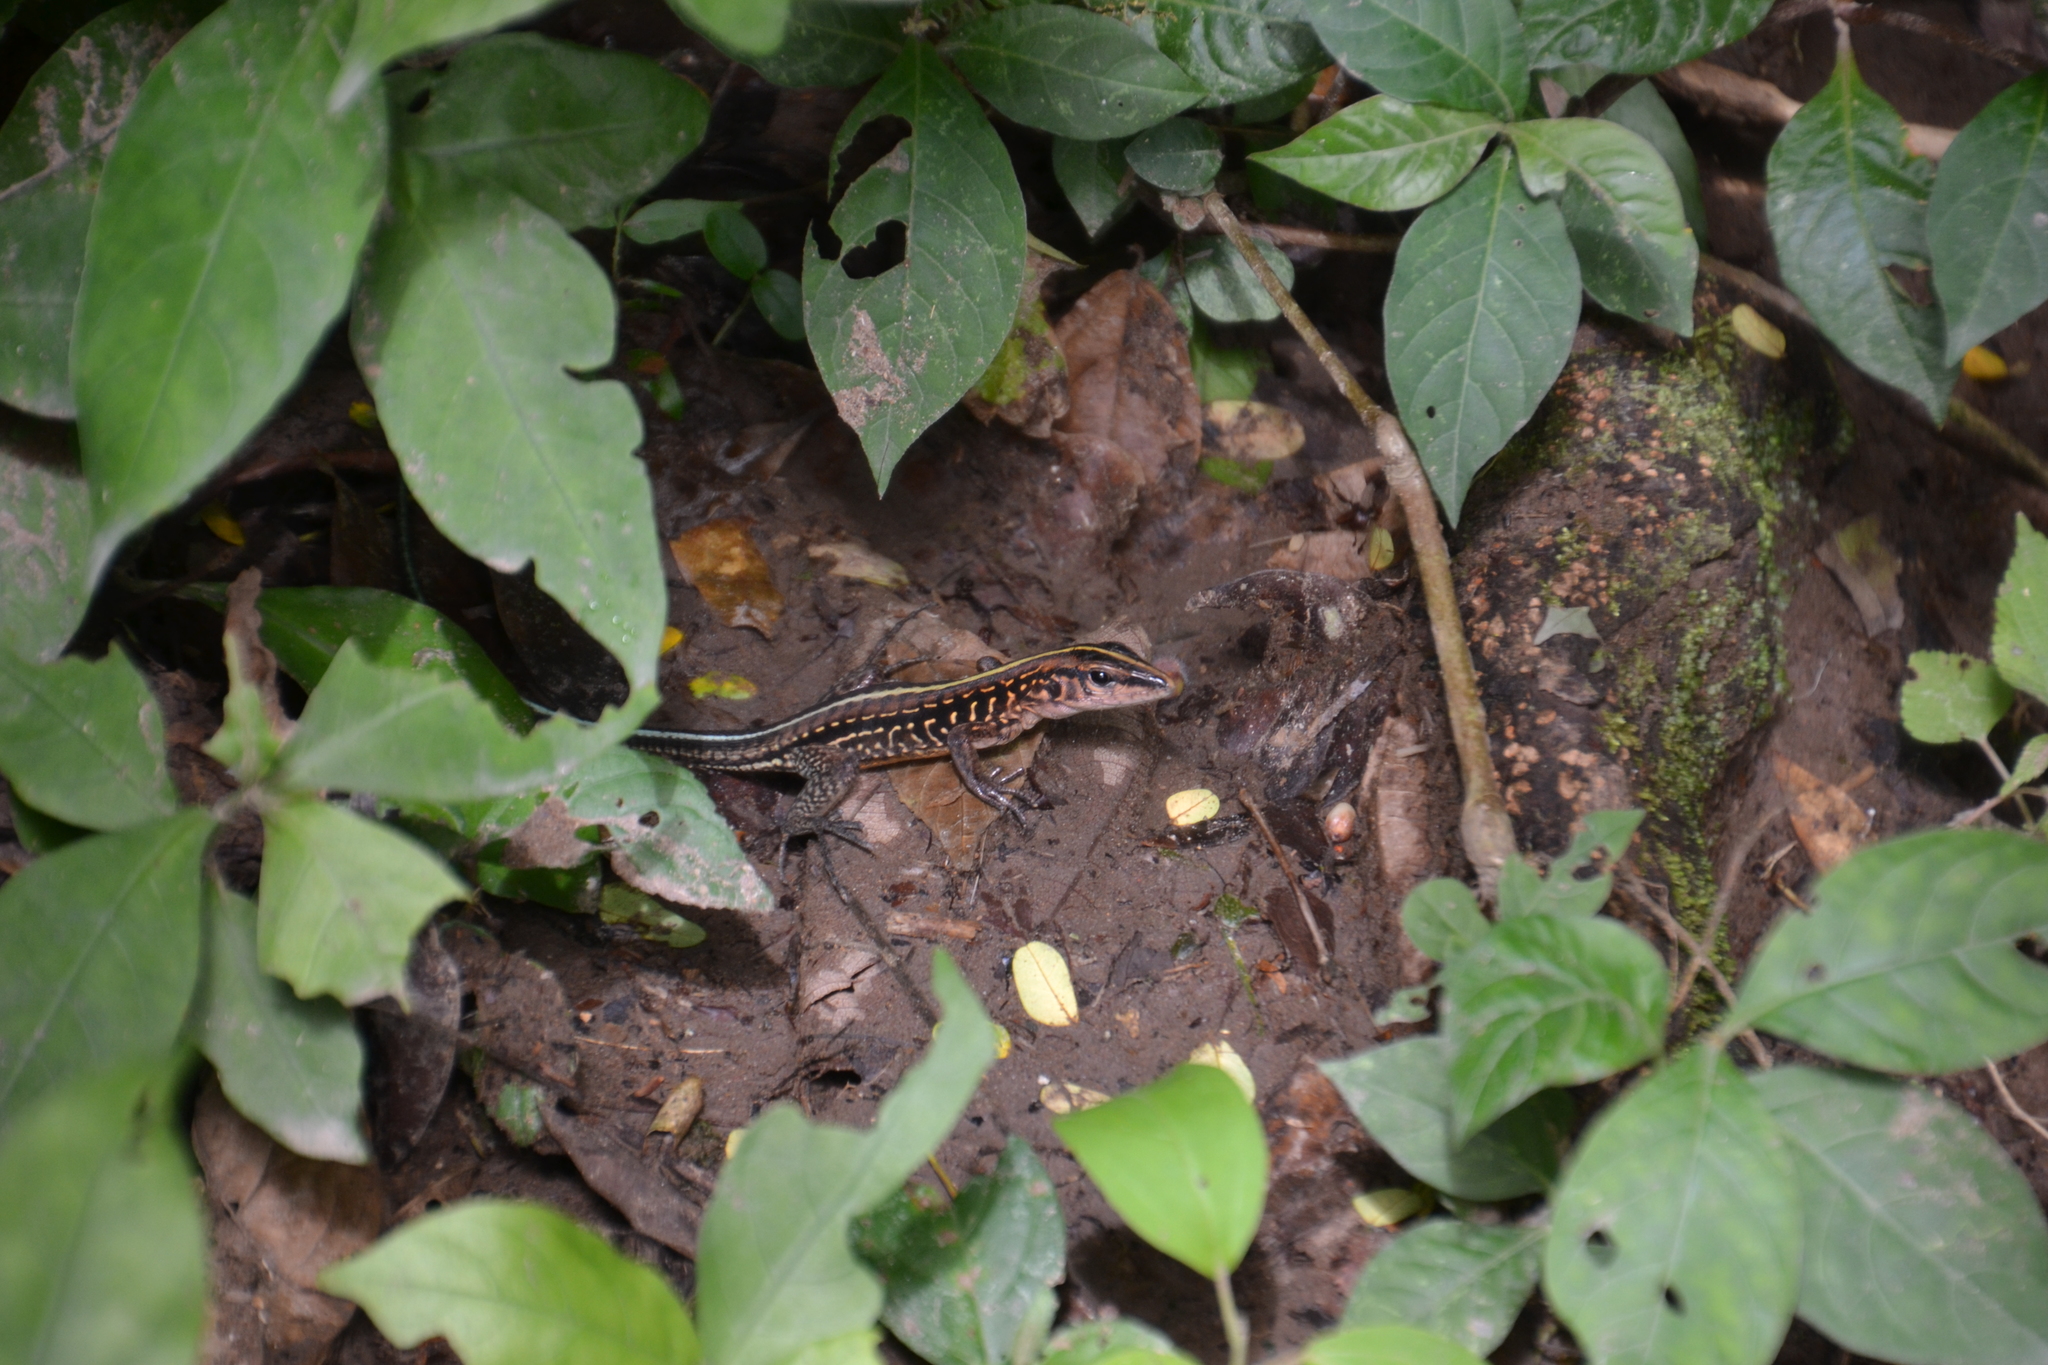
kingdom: Animalia
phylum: Chordata
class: Squamata
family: Teiidae
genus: Holcosus
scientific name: Holcosus festivus
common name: Middle american ameiva
